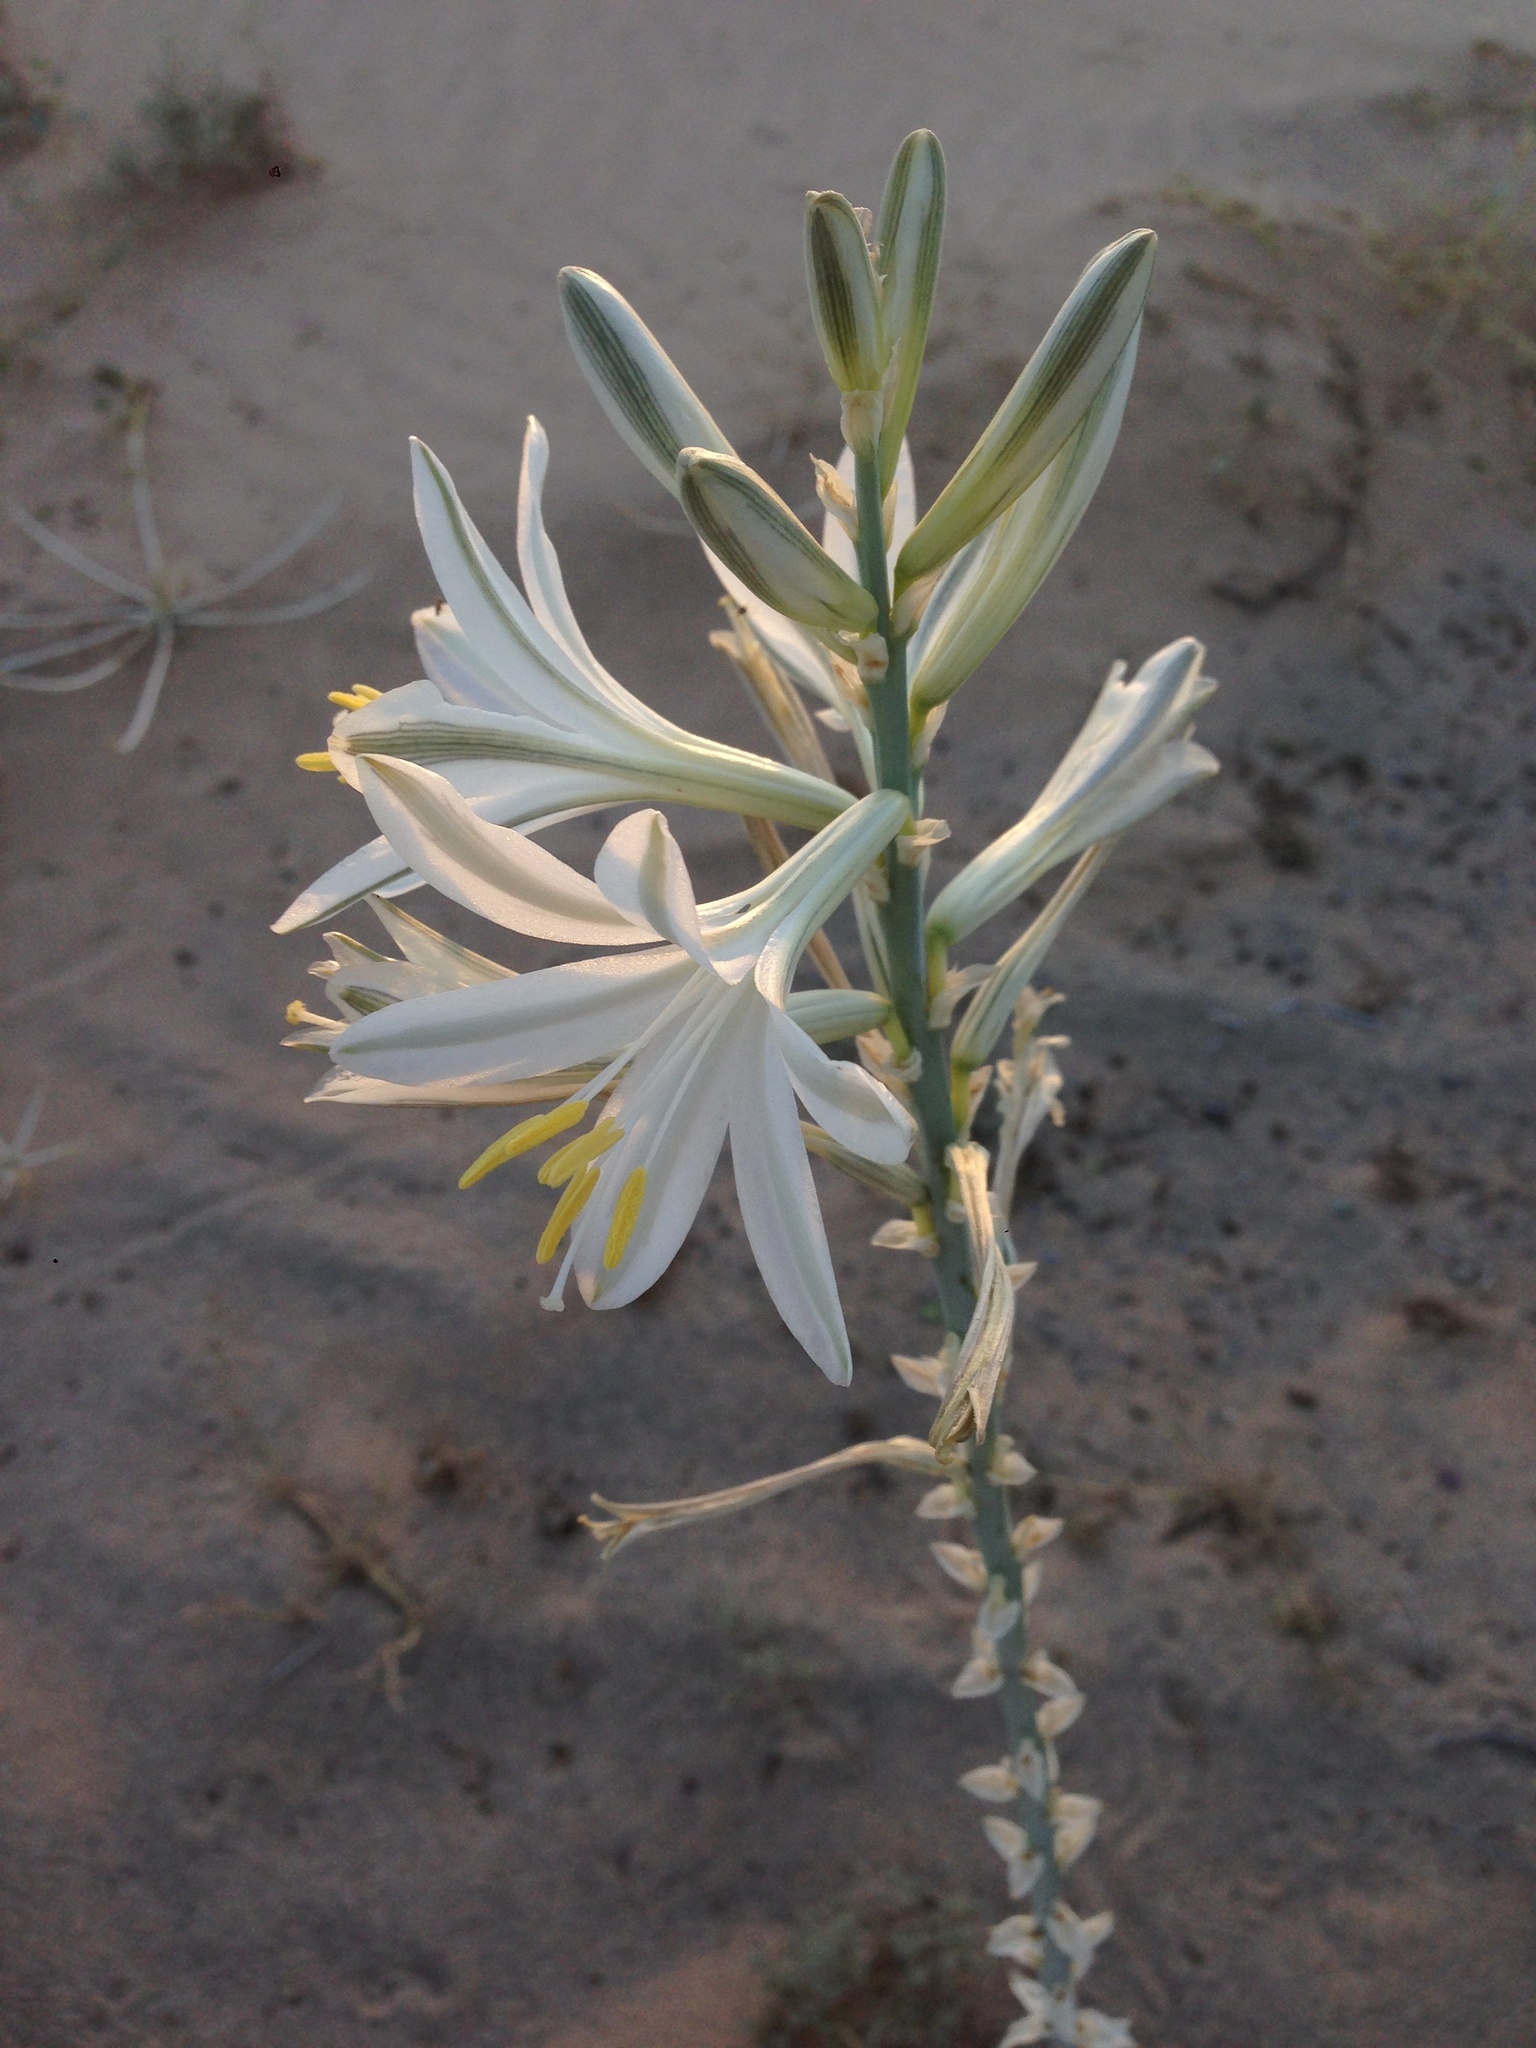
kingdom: Plantae
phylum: Tracheophyta
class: Liliopsida
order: Asparagales
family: Asparagaceae
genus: Hesperocallis
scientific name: Hesperocallis undulata
